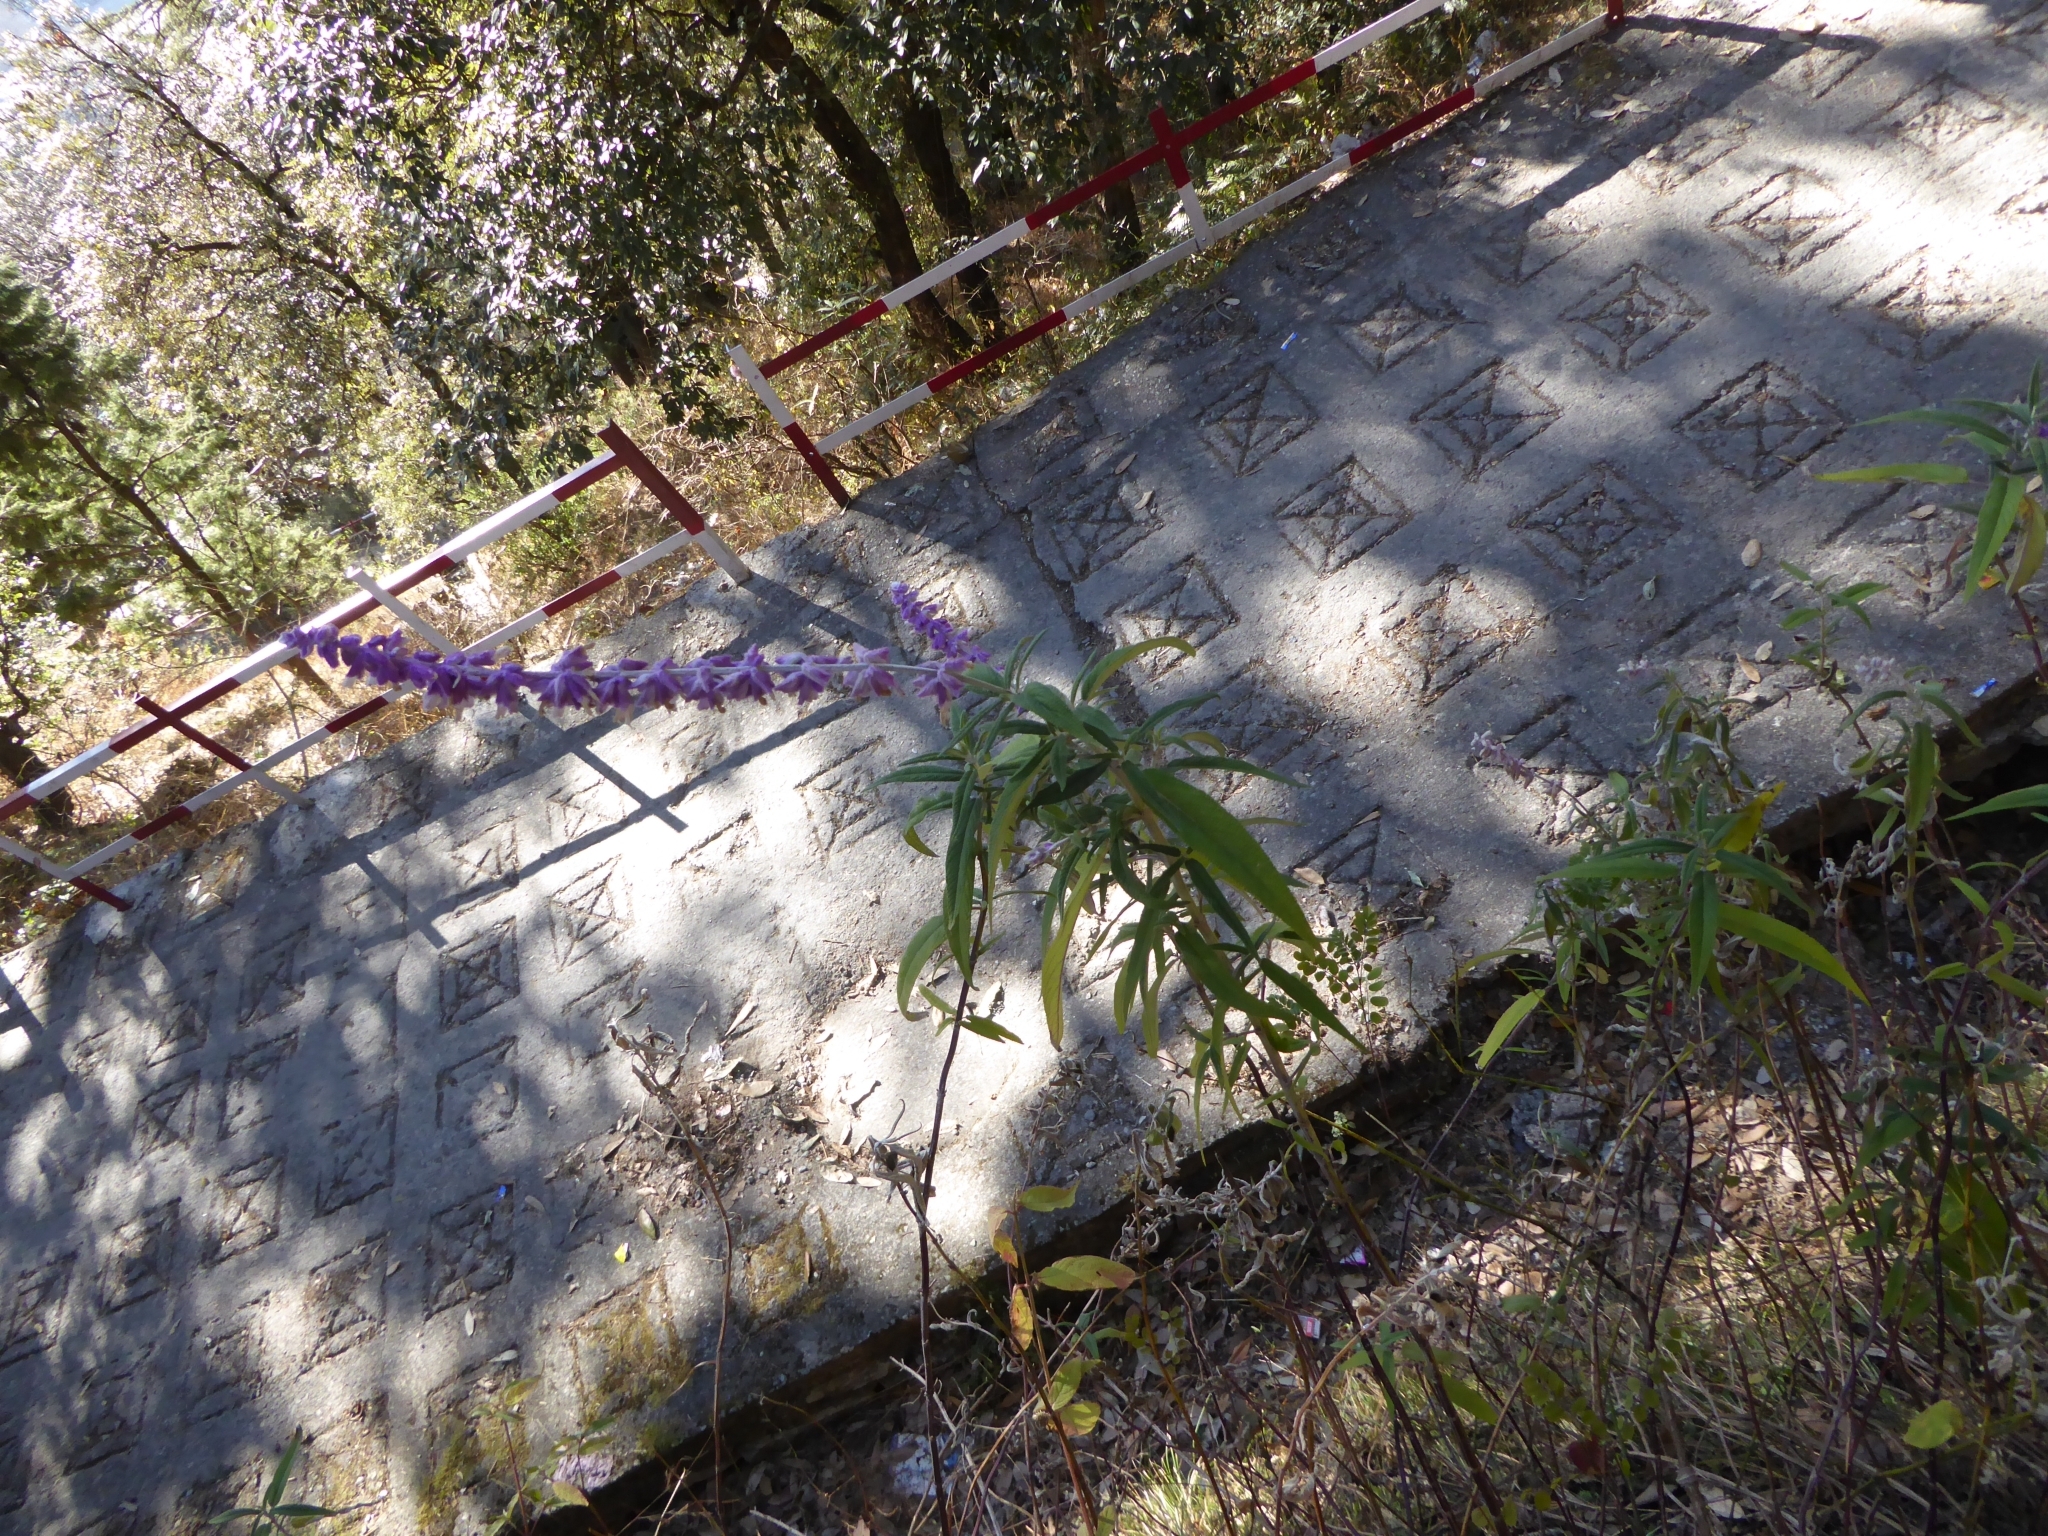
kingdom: Plantae
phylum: Tracheophyta
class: Magnoliopsida
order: Lamiales
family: Lamiaceae
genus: Salvia
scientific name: Salvia leucantha
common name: Mexican bush sage
